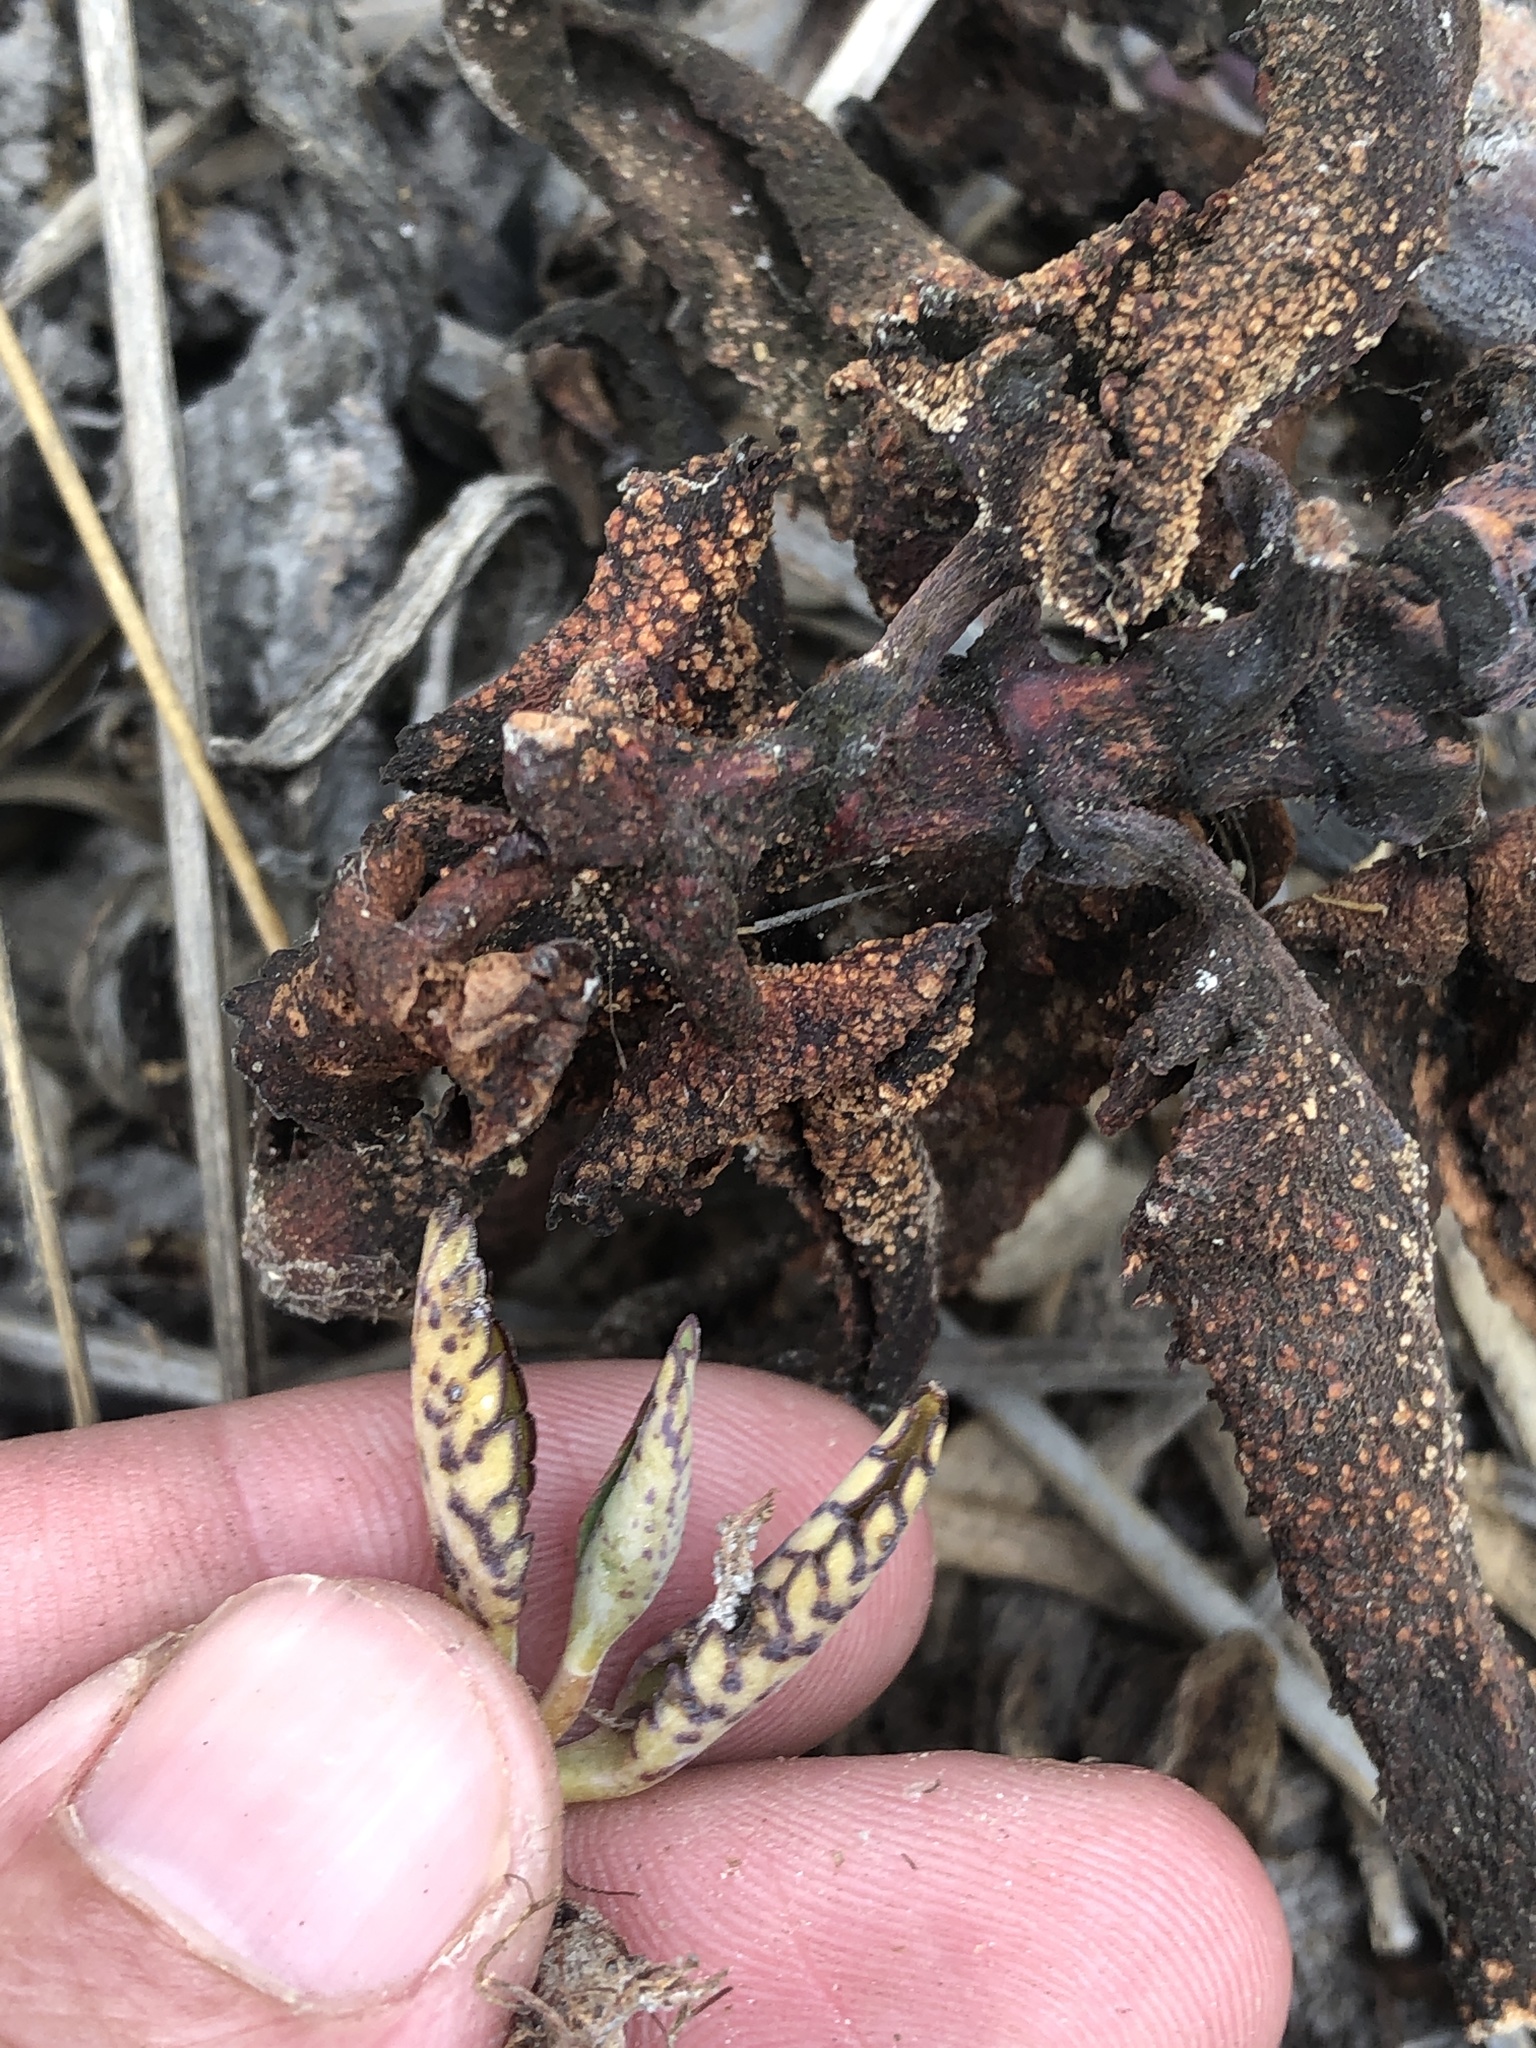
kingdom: Plantae
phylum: Tracheophyta
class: Magnoliopsida
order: Saxifragales
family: Crassulaceae
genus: Kalanchoe
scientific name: Kalanchoe daigremontiana
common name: Devil's backbone
